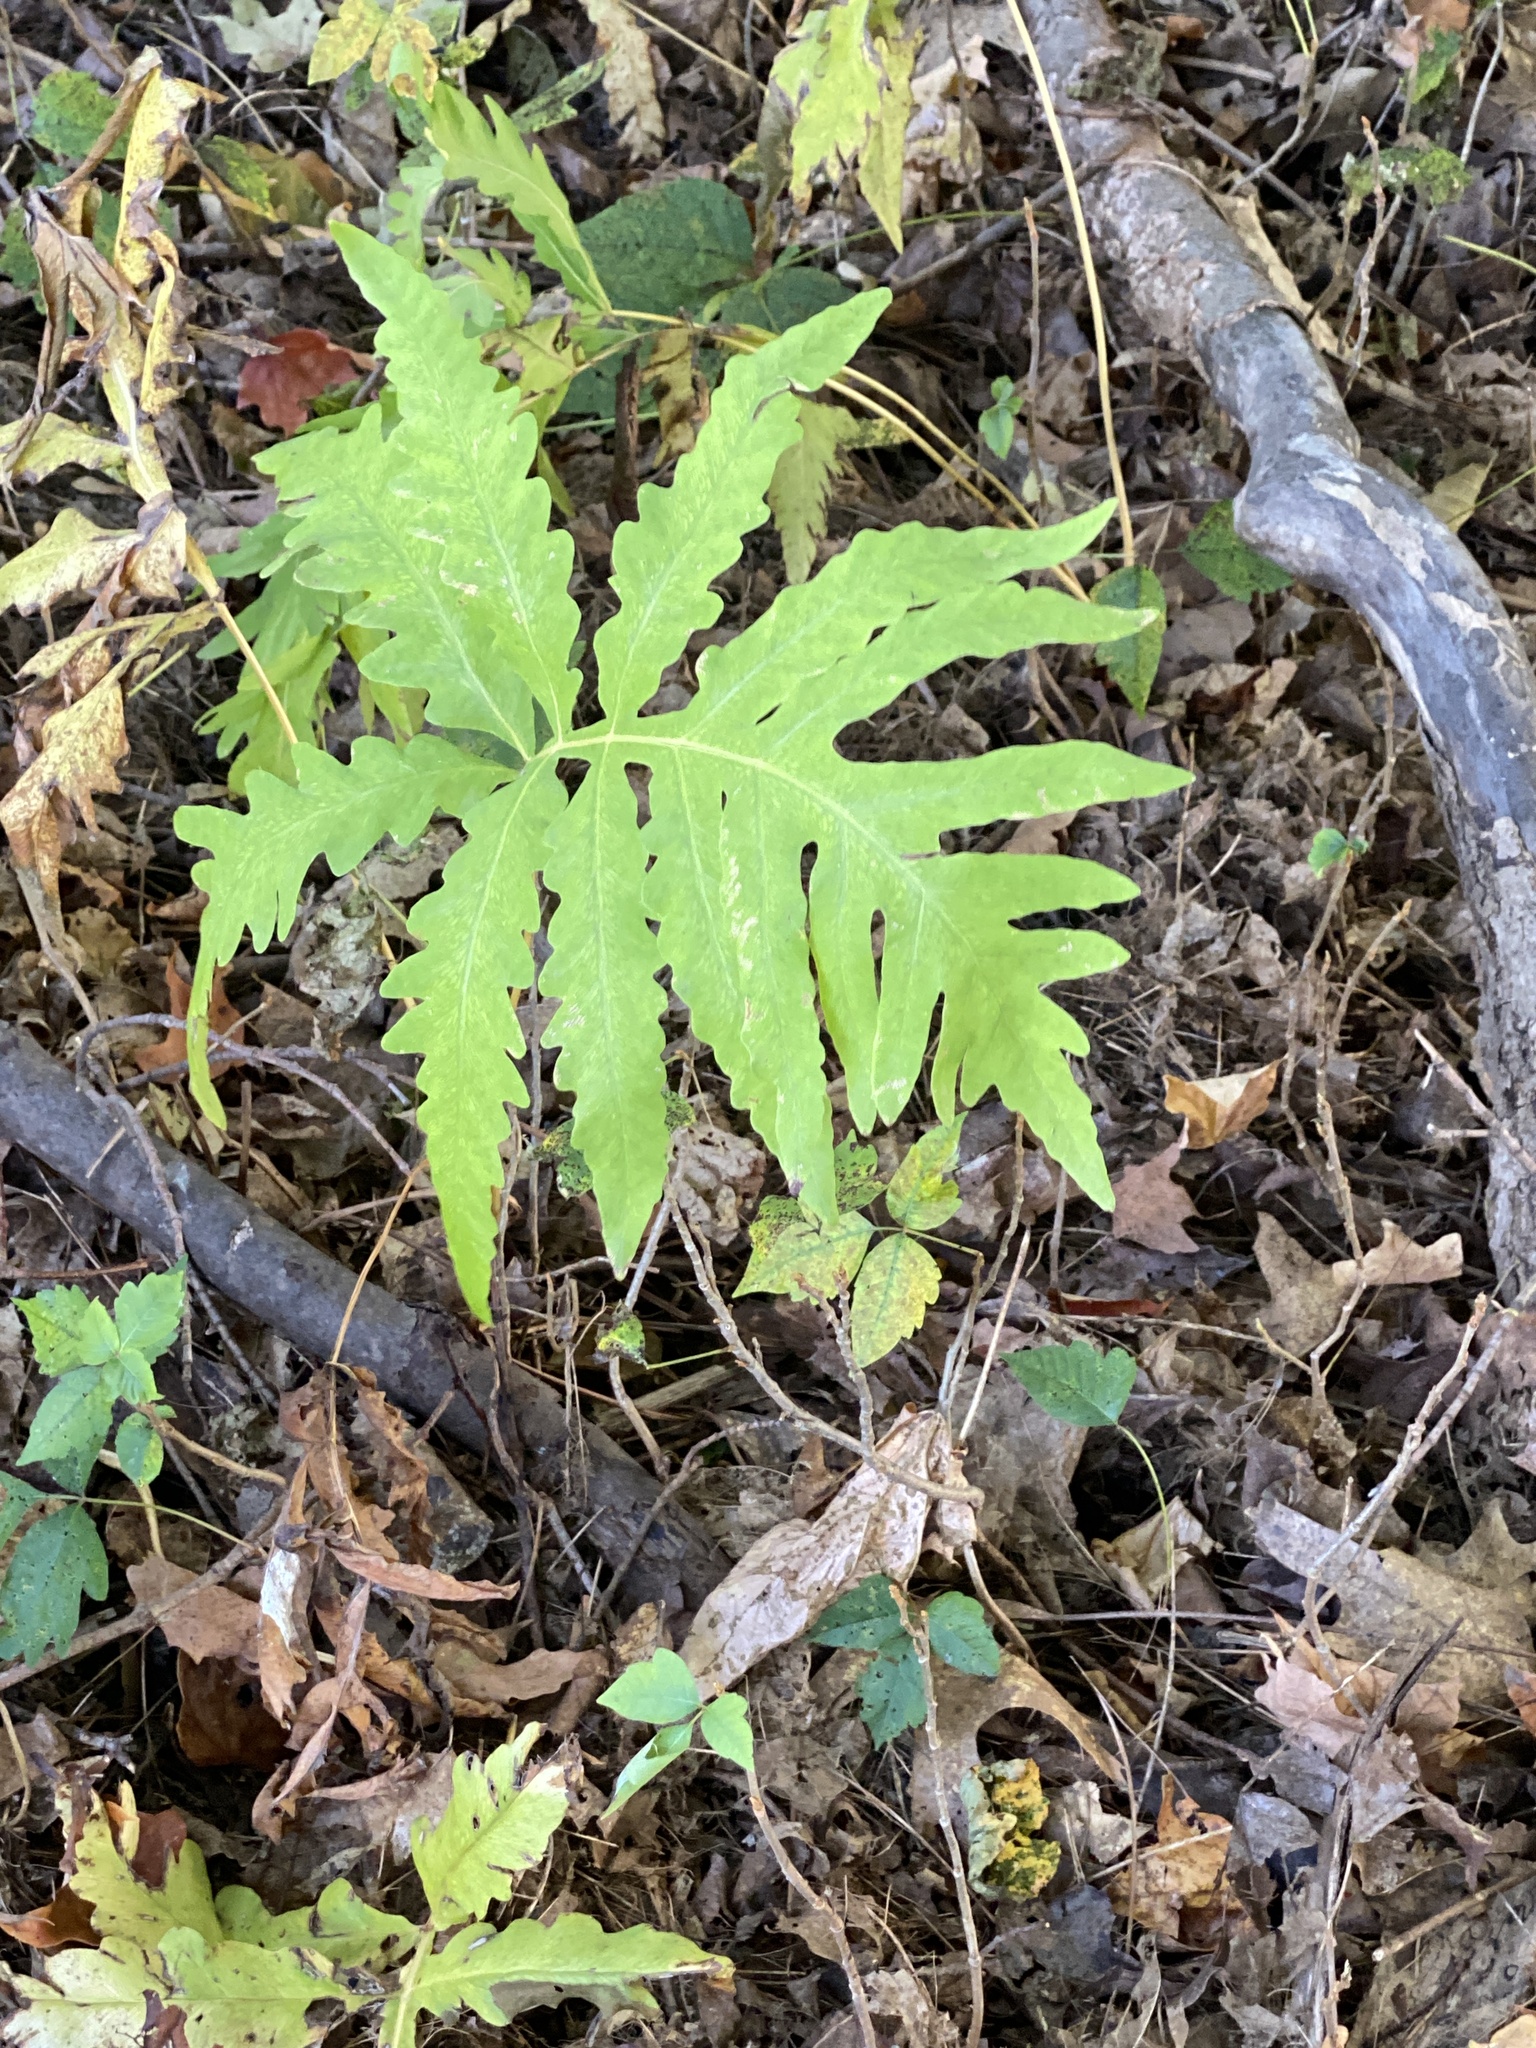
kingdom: Plantae
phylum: Tracheophyta
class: Polypodiopsida
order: Polypodiales
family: Onocleaceae
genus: Onoclea
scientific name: Onoclea sensibilis
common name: Sensitive fern
